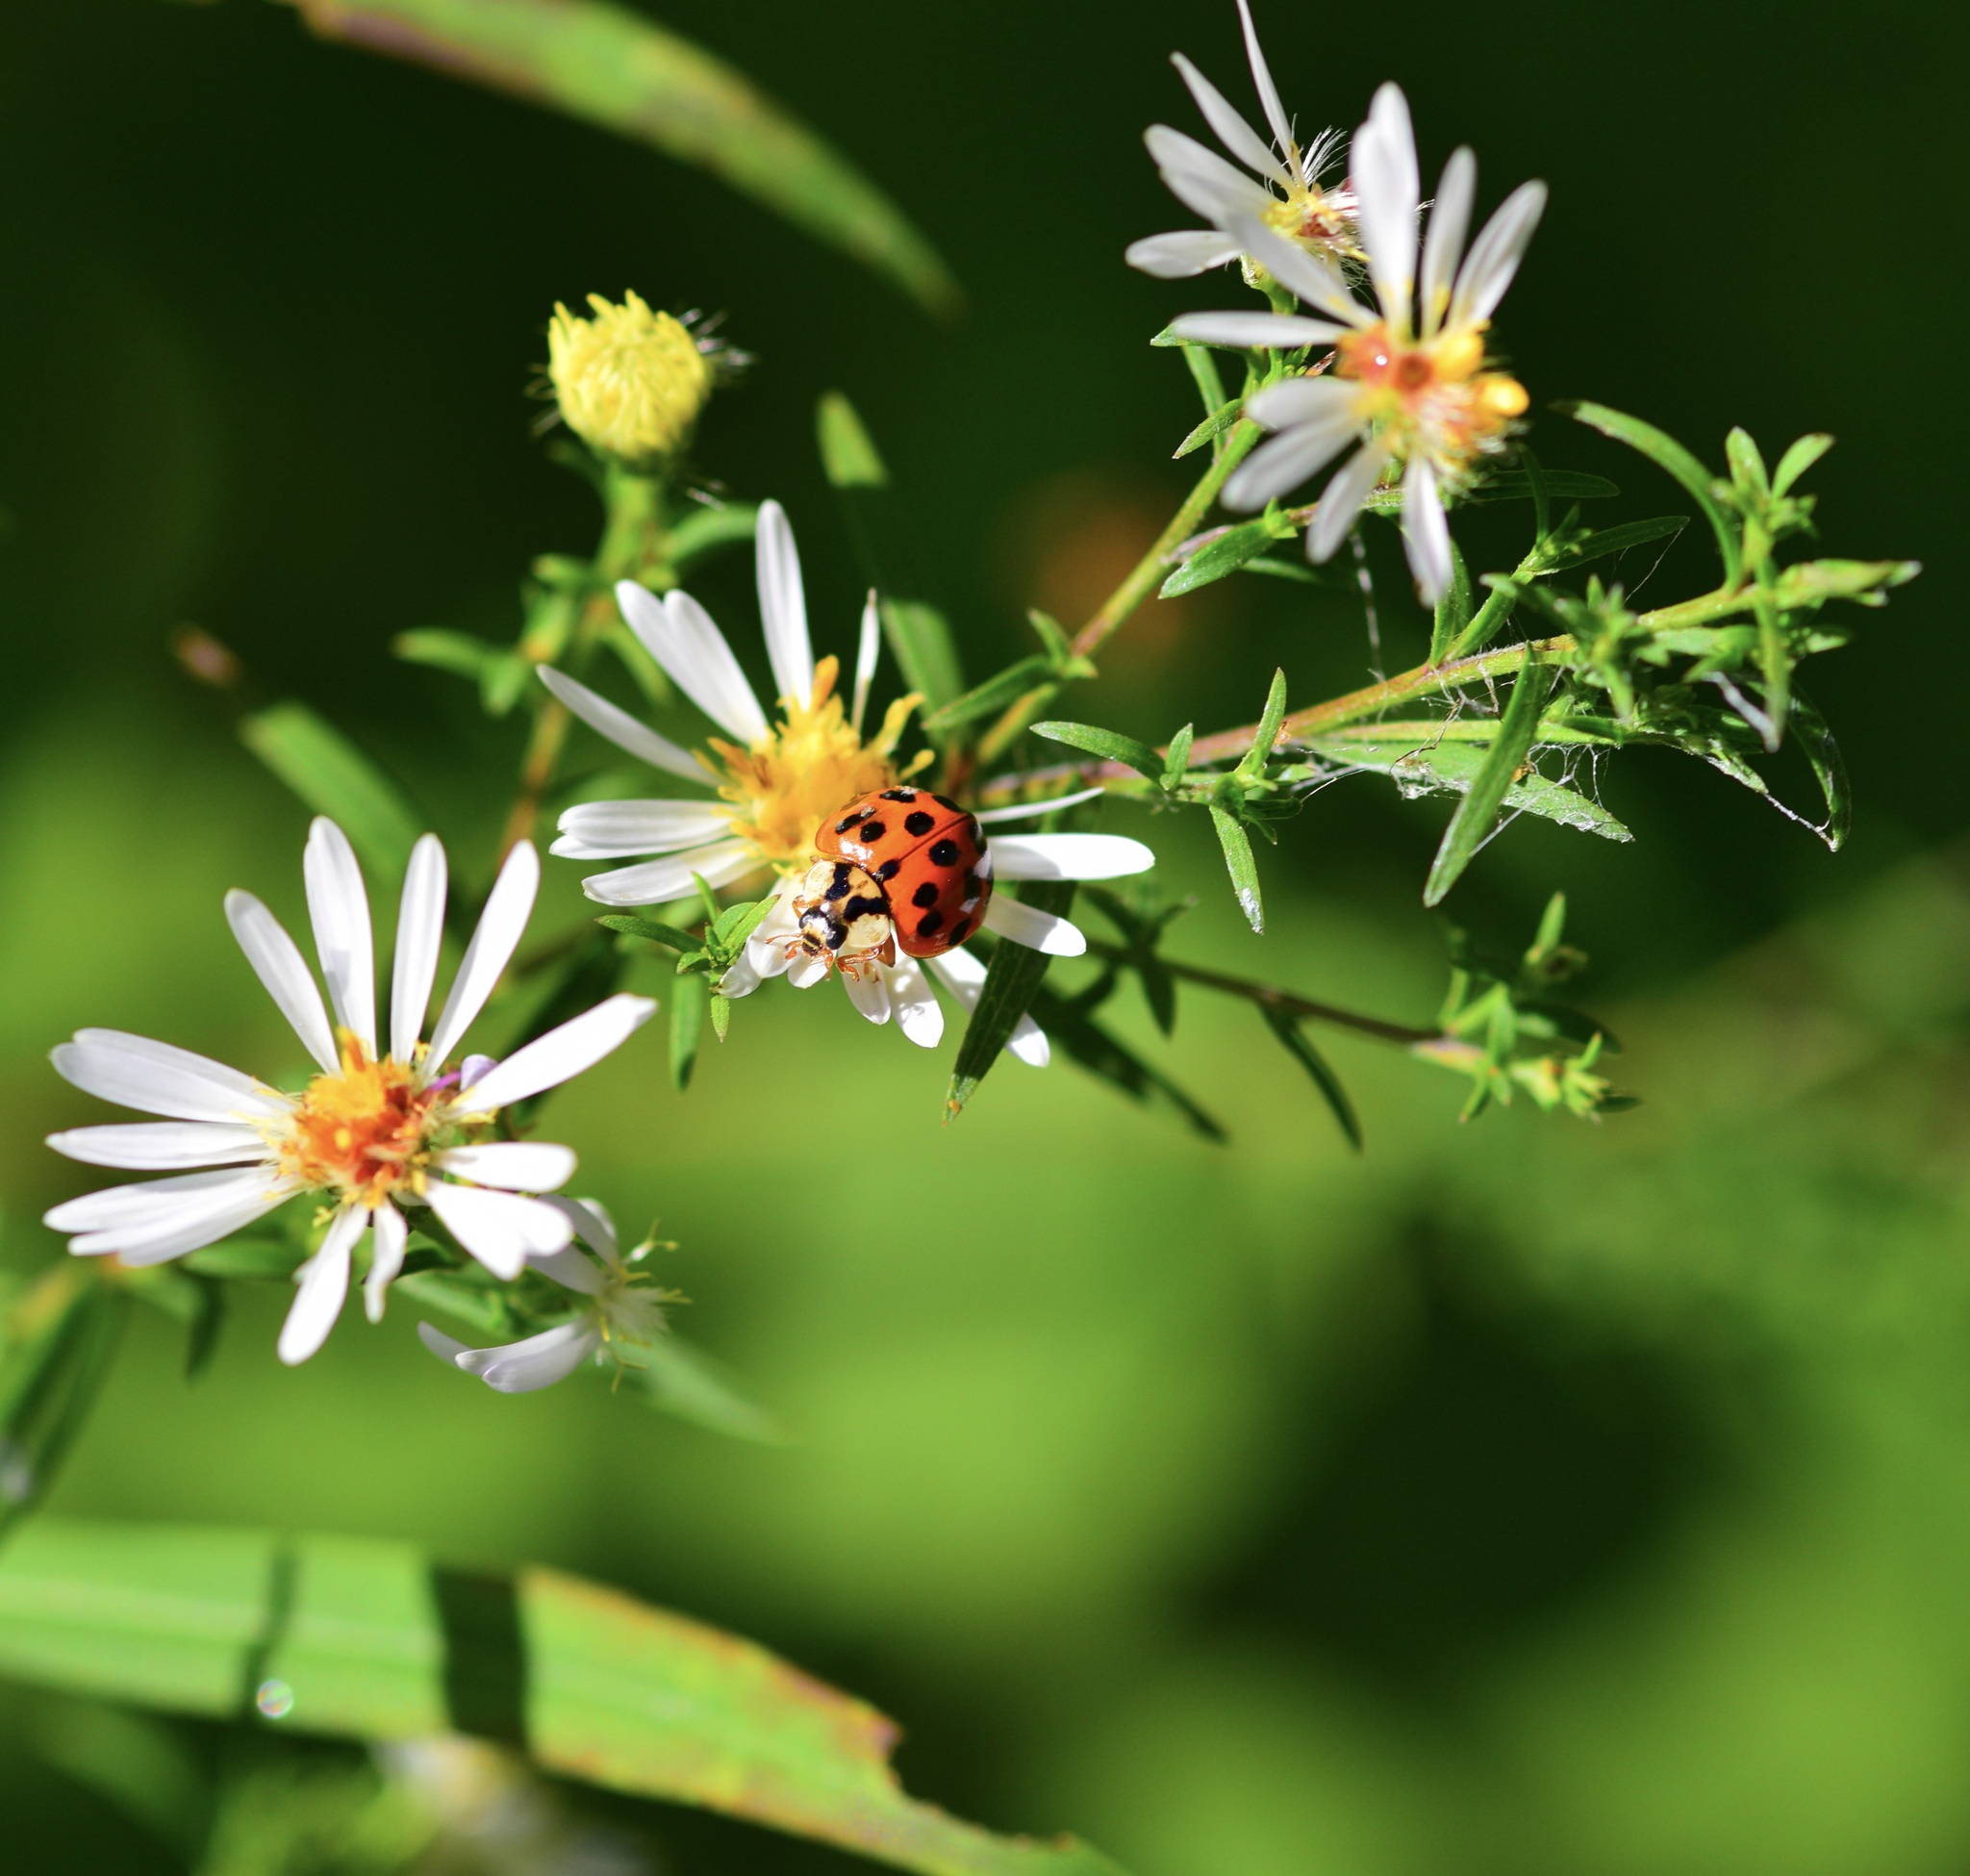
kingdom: Animalia
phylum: Arthropoda
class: Insecta
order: Coleoptera
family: Coccinellidae
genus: Harmonia
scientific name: Harmonia axyridis
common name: Harlequin ladybird
